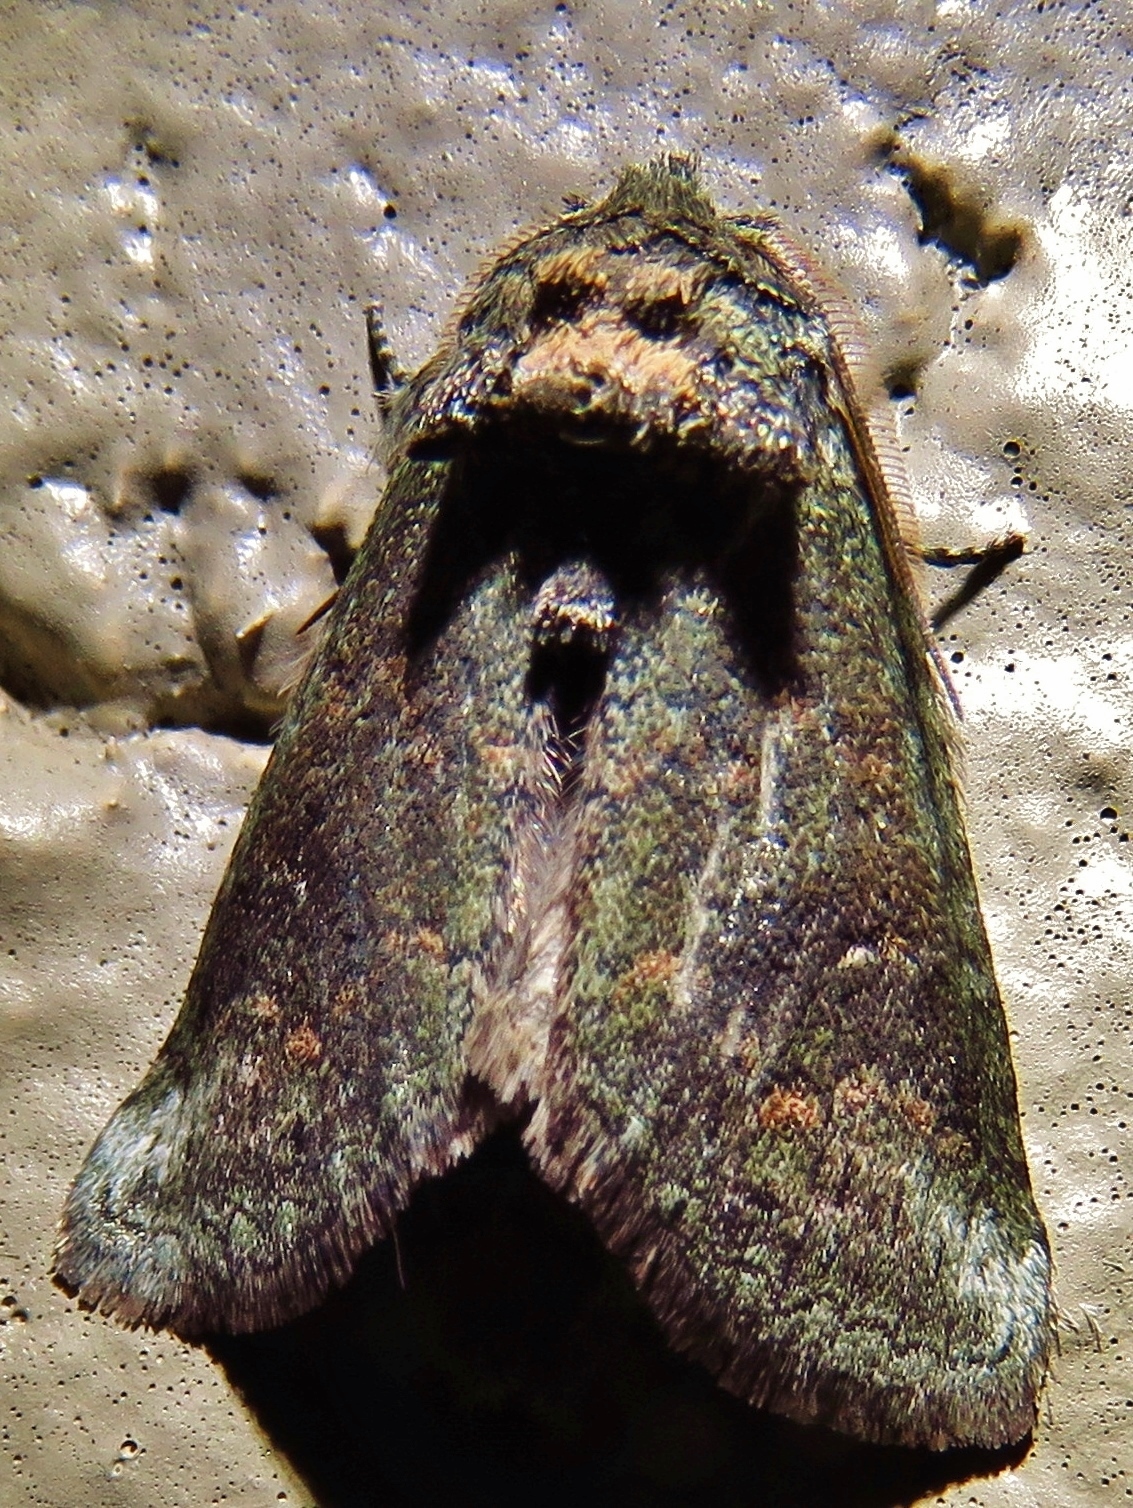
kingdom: Animalia
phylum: Arthropoda
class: Insecta
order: Lepidoptera
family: Notodontidae
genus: Rifargia
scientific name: Rifargia
